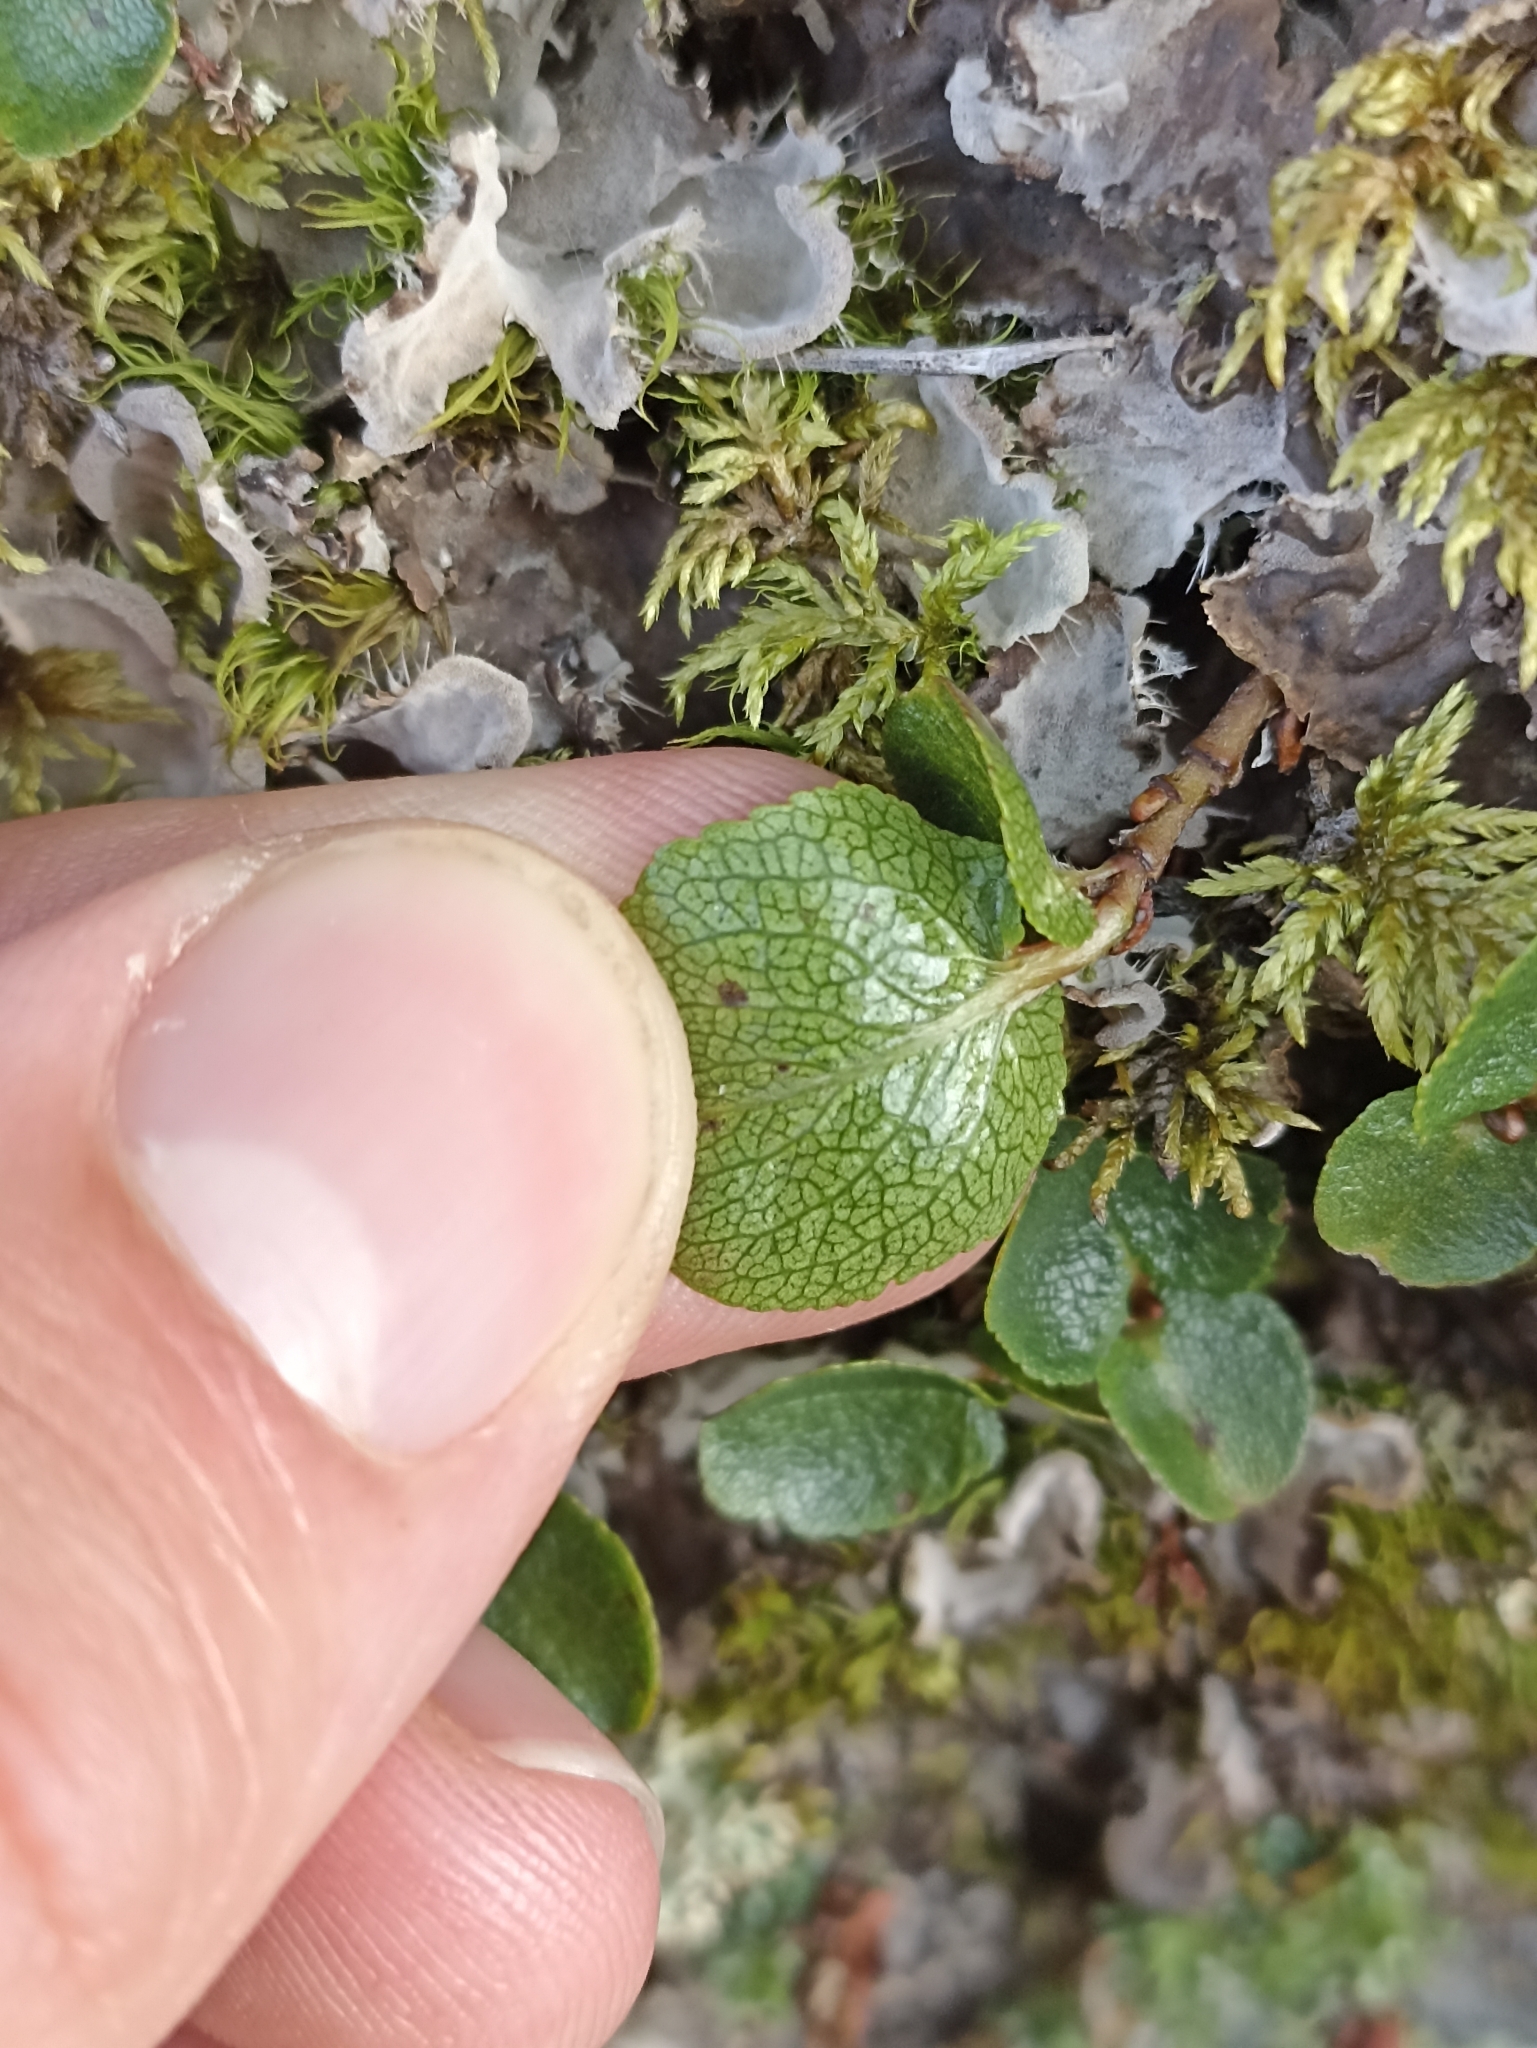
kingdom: Plantae
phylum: Tracheophyta
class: Magnoliopsida
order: Malpighiales
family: Salicaceae
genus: Salix
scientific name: Salix herbacea
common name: Dwarf willow
